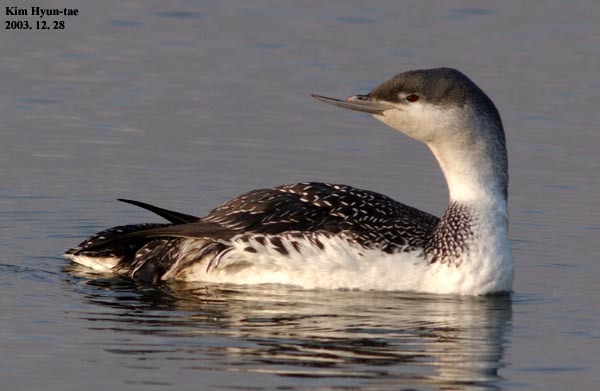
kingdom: Animalia
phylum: Chordata
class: Aves
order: Gaviiformes
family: Gaviidae
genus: Gavia
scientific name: Gavia stellata
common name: Red-throated loon
